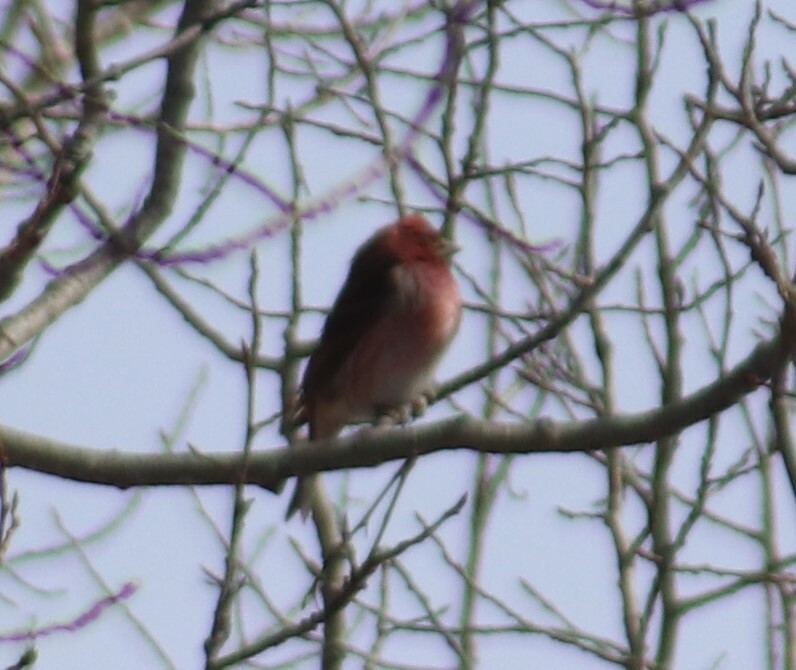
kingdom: Animalia
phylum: Chordata
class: Aves
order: Passeriformes
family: Fringillidae
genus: Haemorhous
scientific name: Haemorhous purpureus
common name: Purple finch
